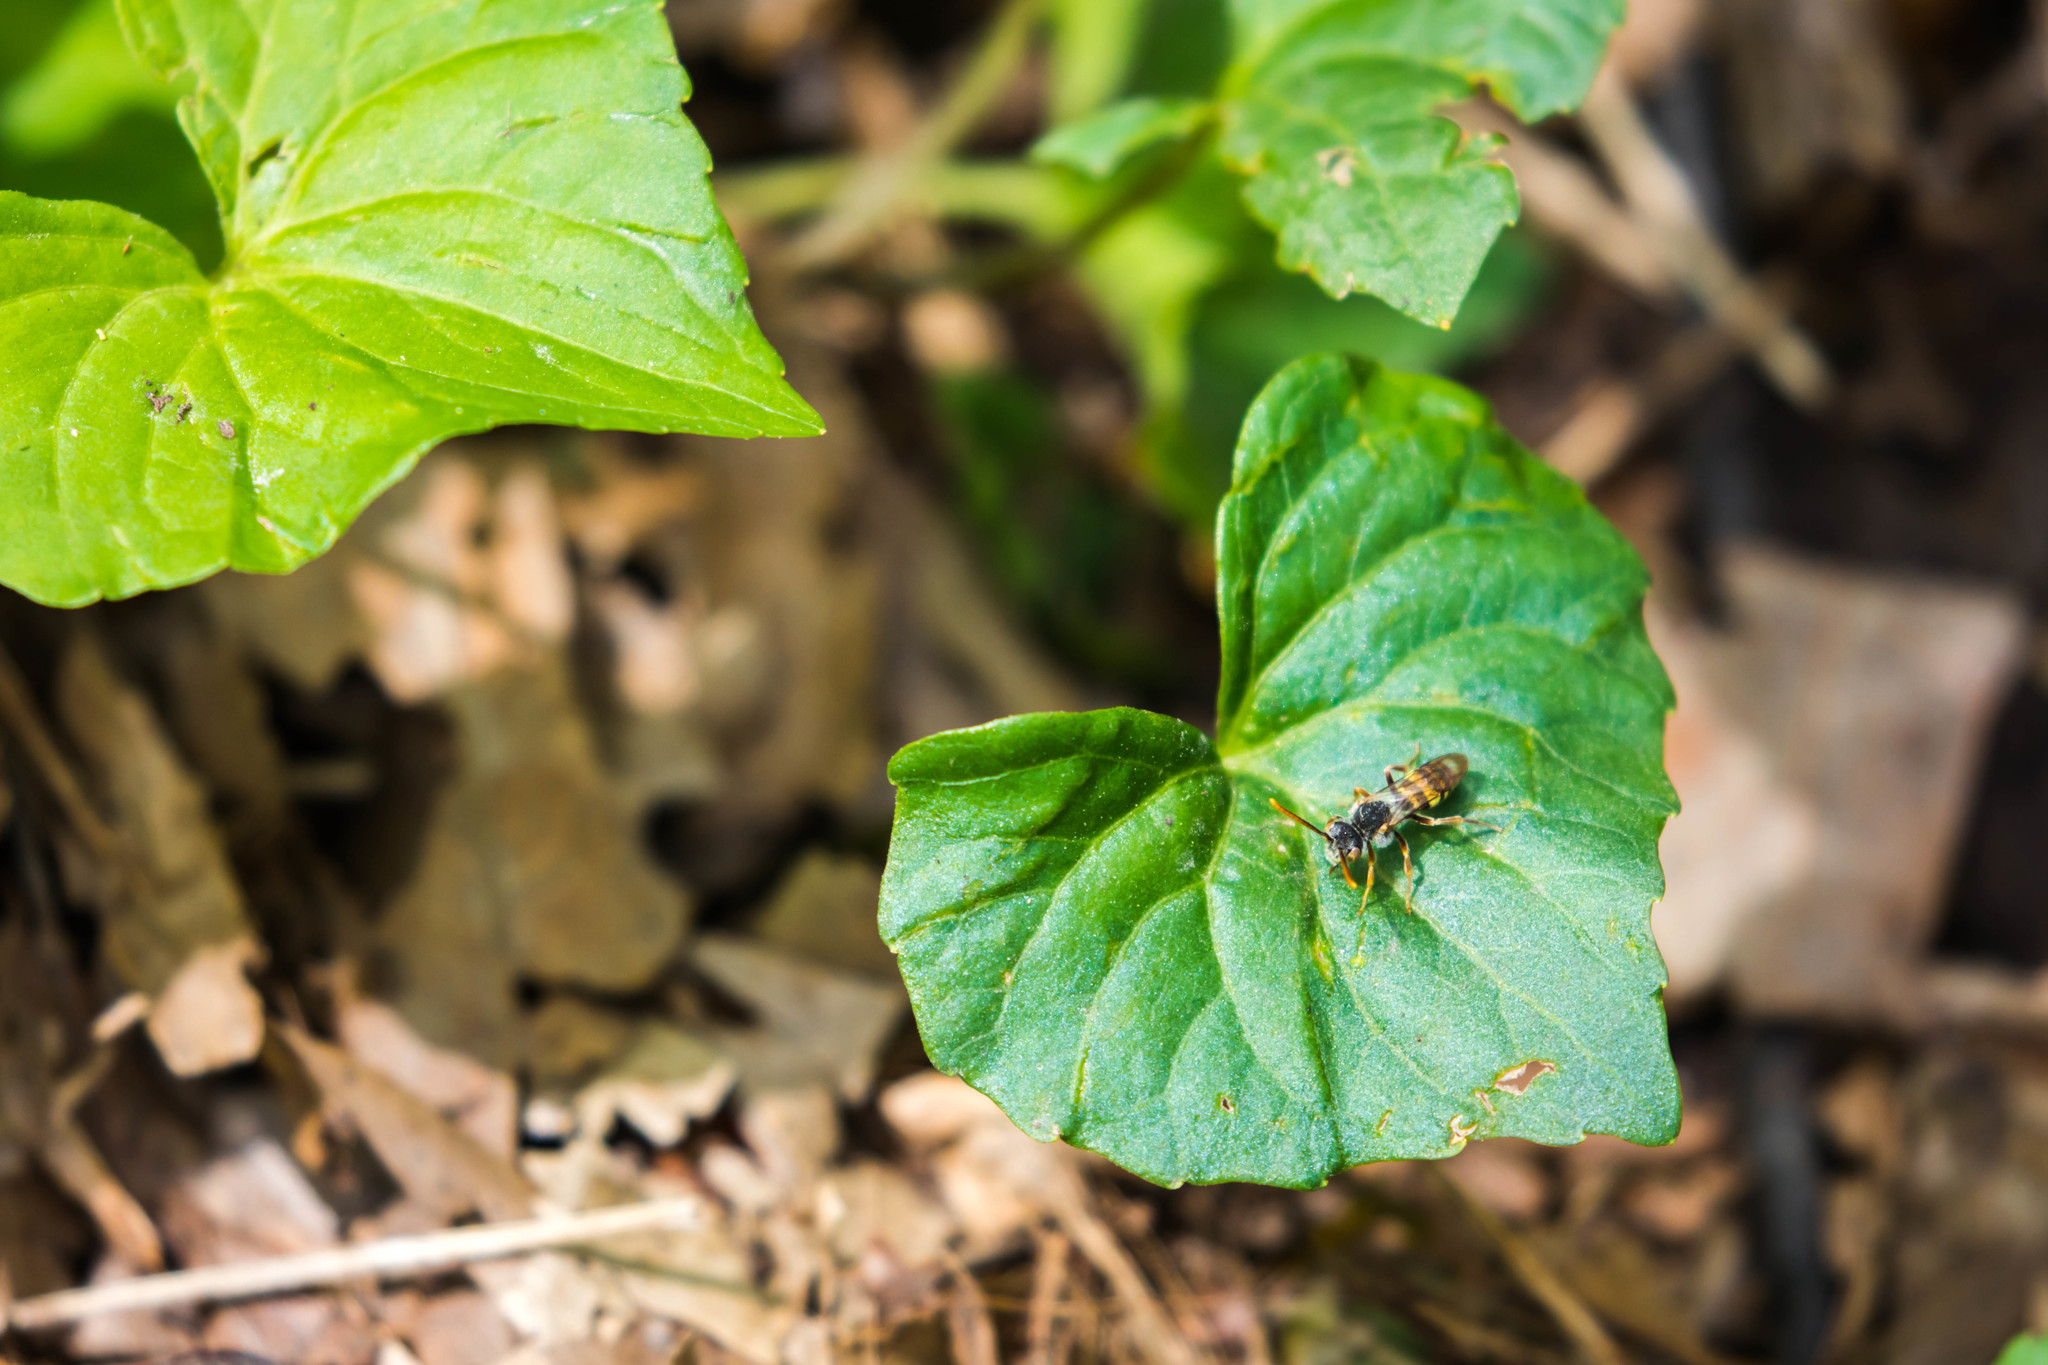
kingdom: Animalia
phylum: Arthropoda
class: Insecta
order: Hymenoptera
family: Apidae
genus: Nomada
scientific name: Nomada
